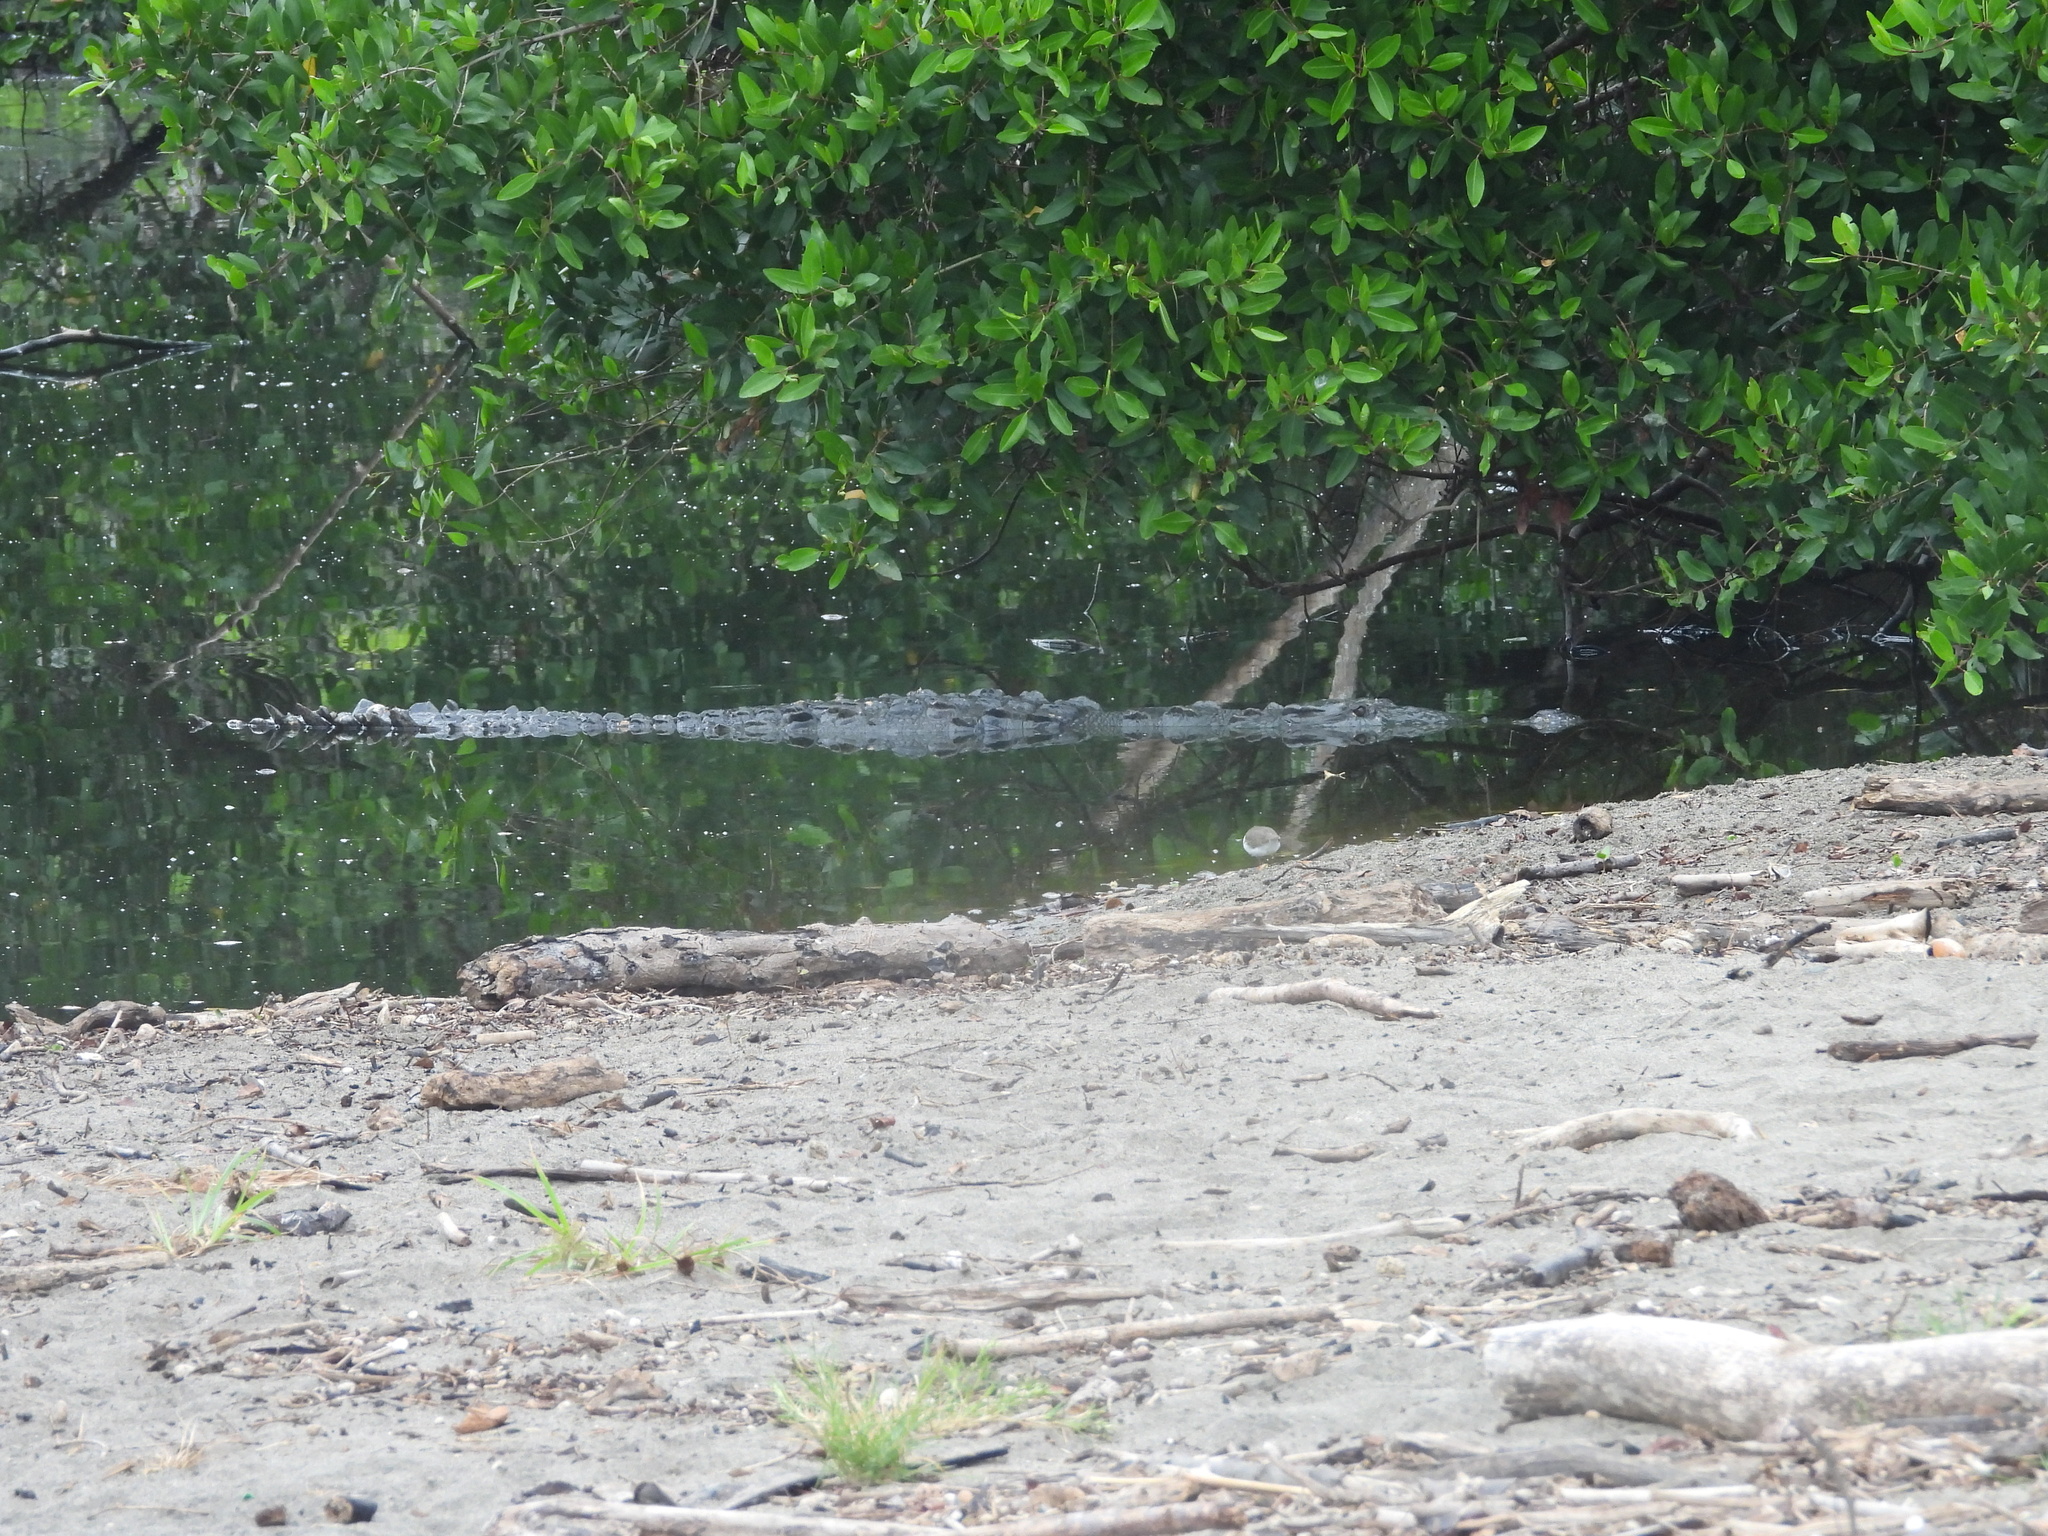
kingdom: Animalia
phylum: Chordata
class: Crocodylia
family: Crocodylidae
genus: Crocodylus
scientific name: Crocodylus acutus
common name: American crocodile
